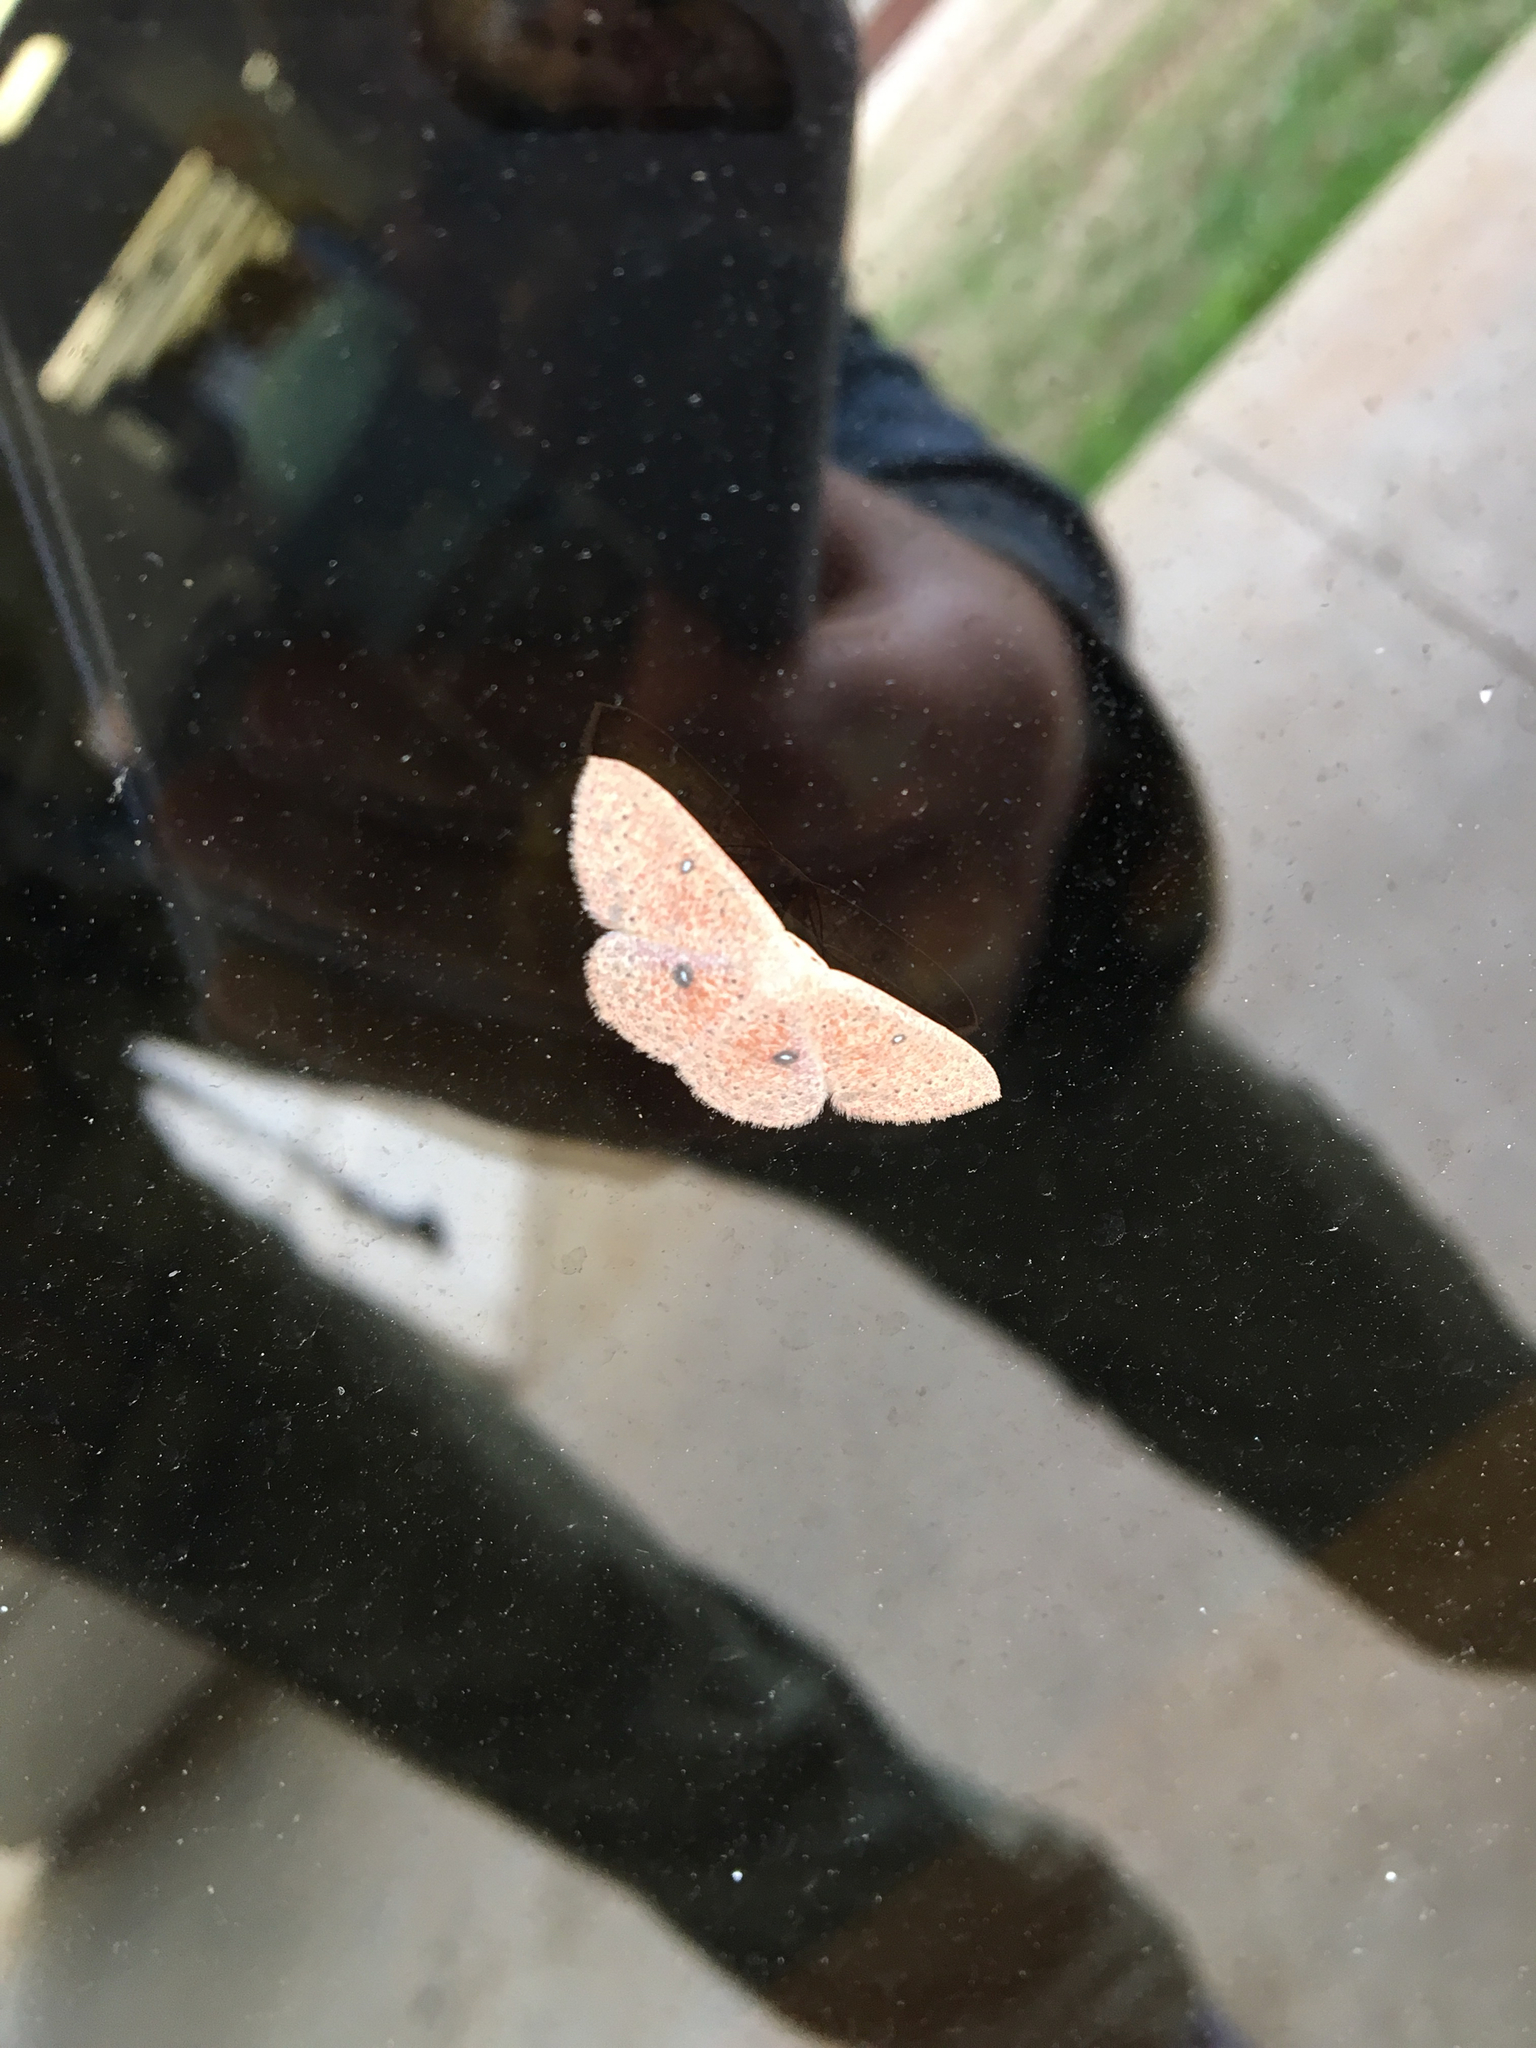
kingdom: Animalia
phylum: Arthropoda
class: Insecta
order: Lepidoptera
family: Geometridae
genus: Cyclophora
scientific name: Cyclophora packardi
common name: Packard's wave
